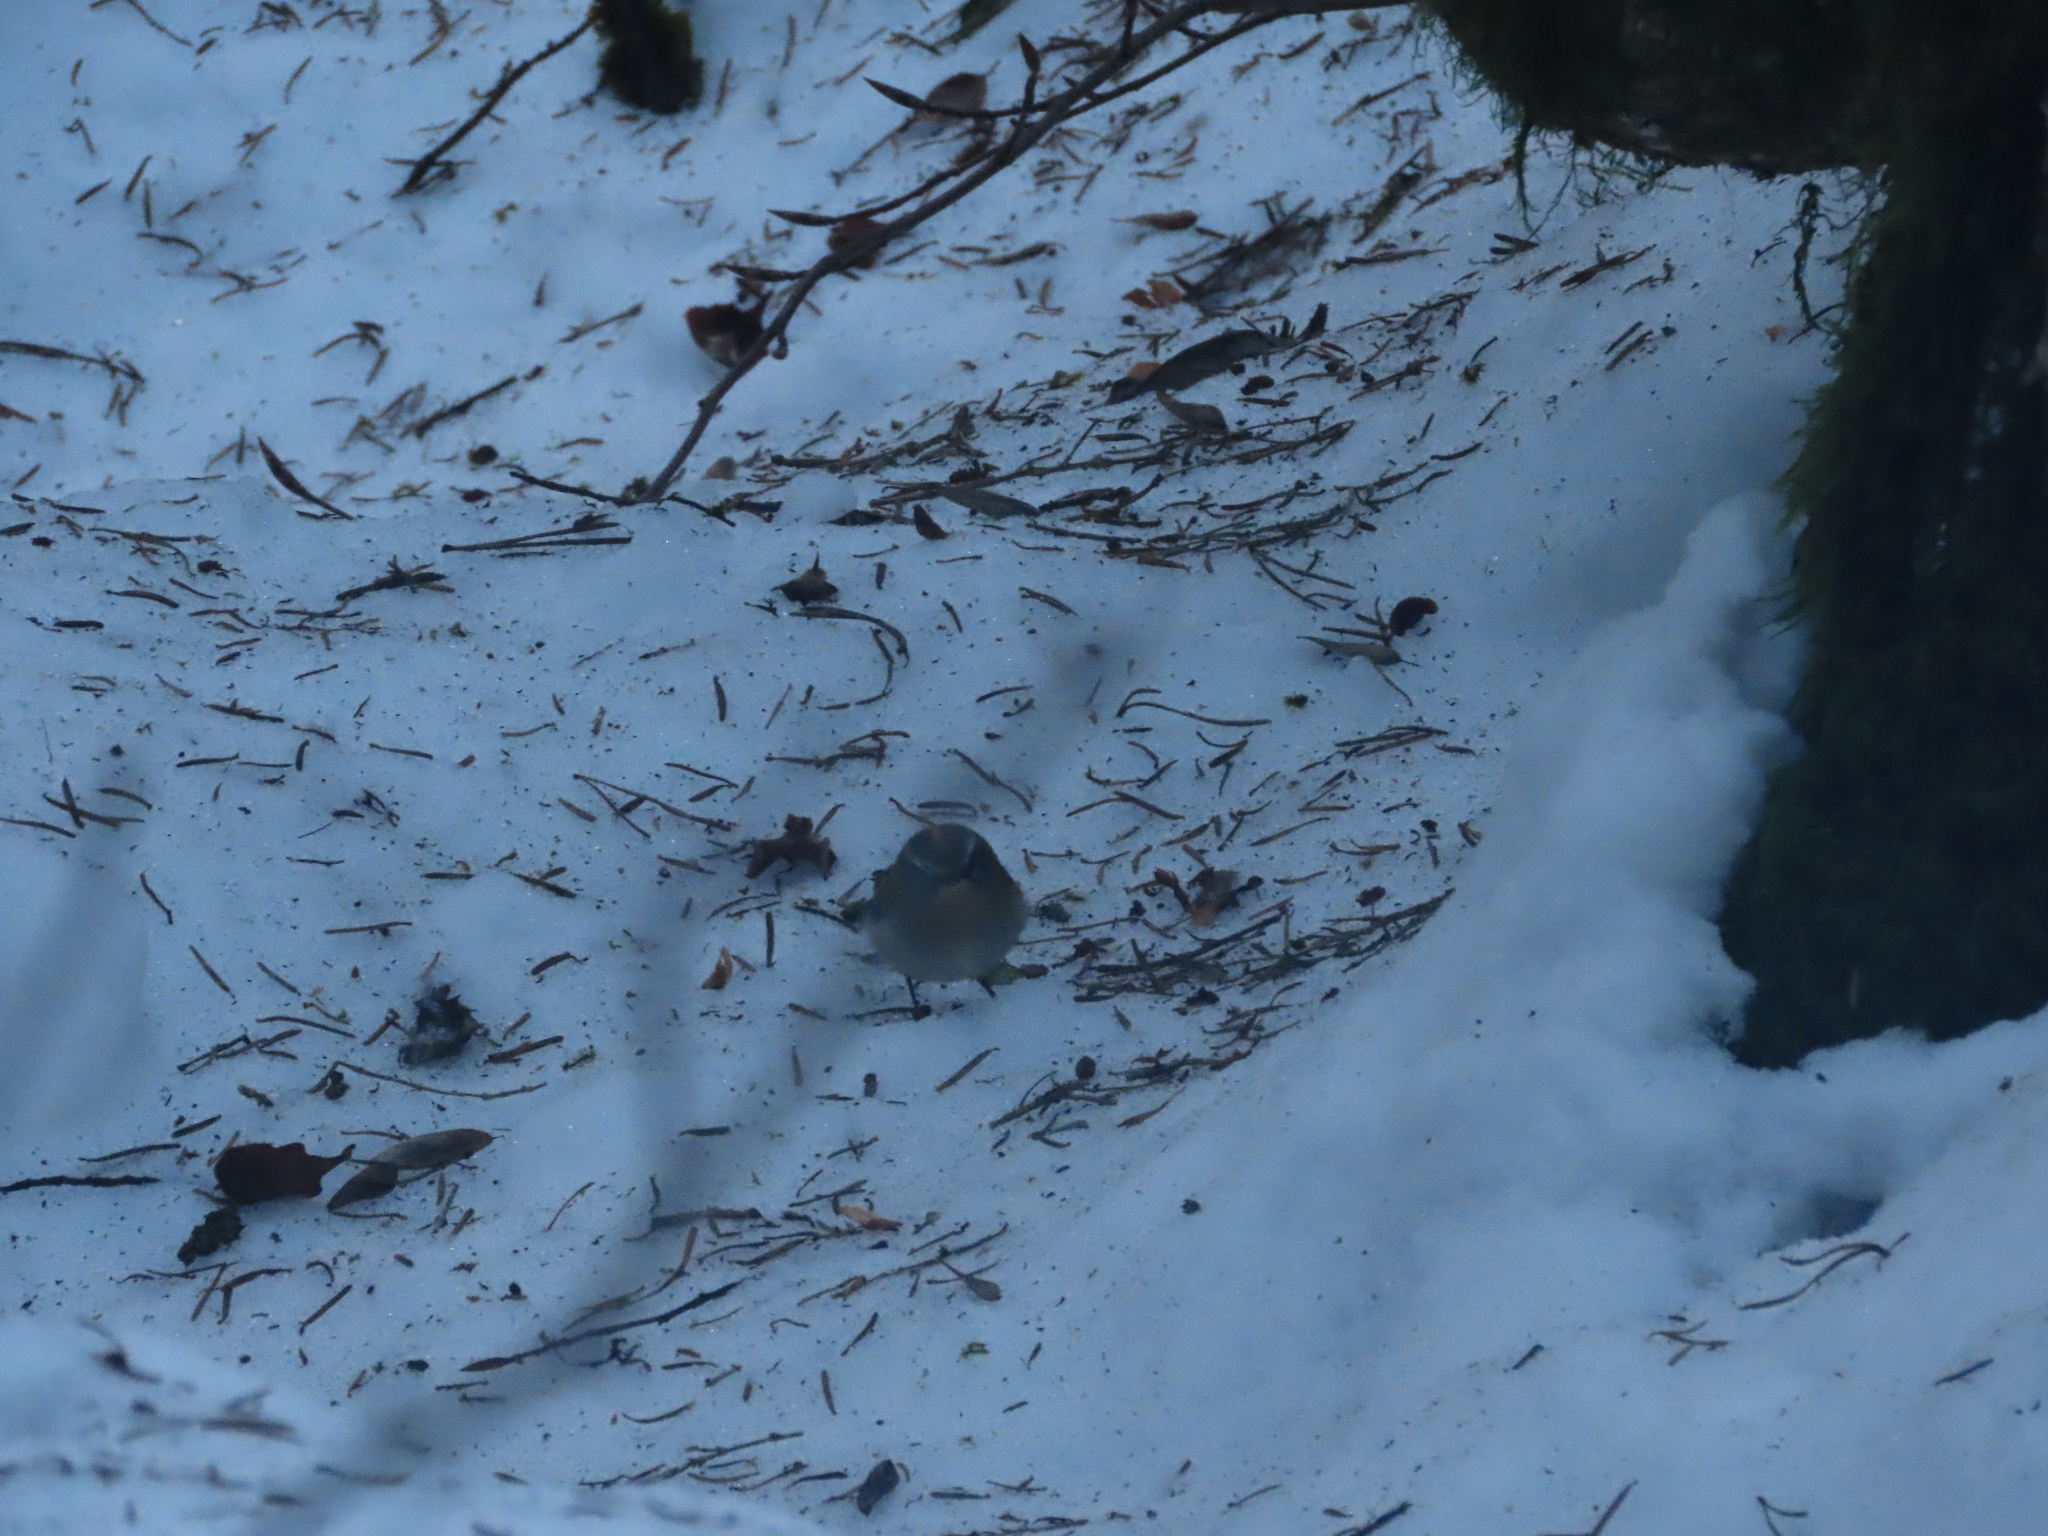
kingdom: Animalia
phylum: Chordata
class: Aves
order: Passeriformes
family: Regulidae
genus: Regulus
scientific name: Regulus ignicapilla
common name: Firecrest
